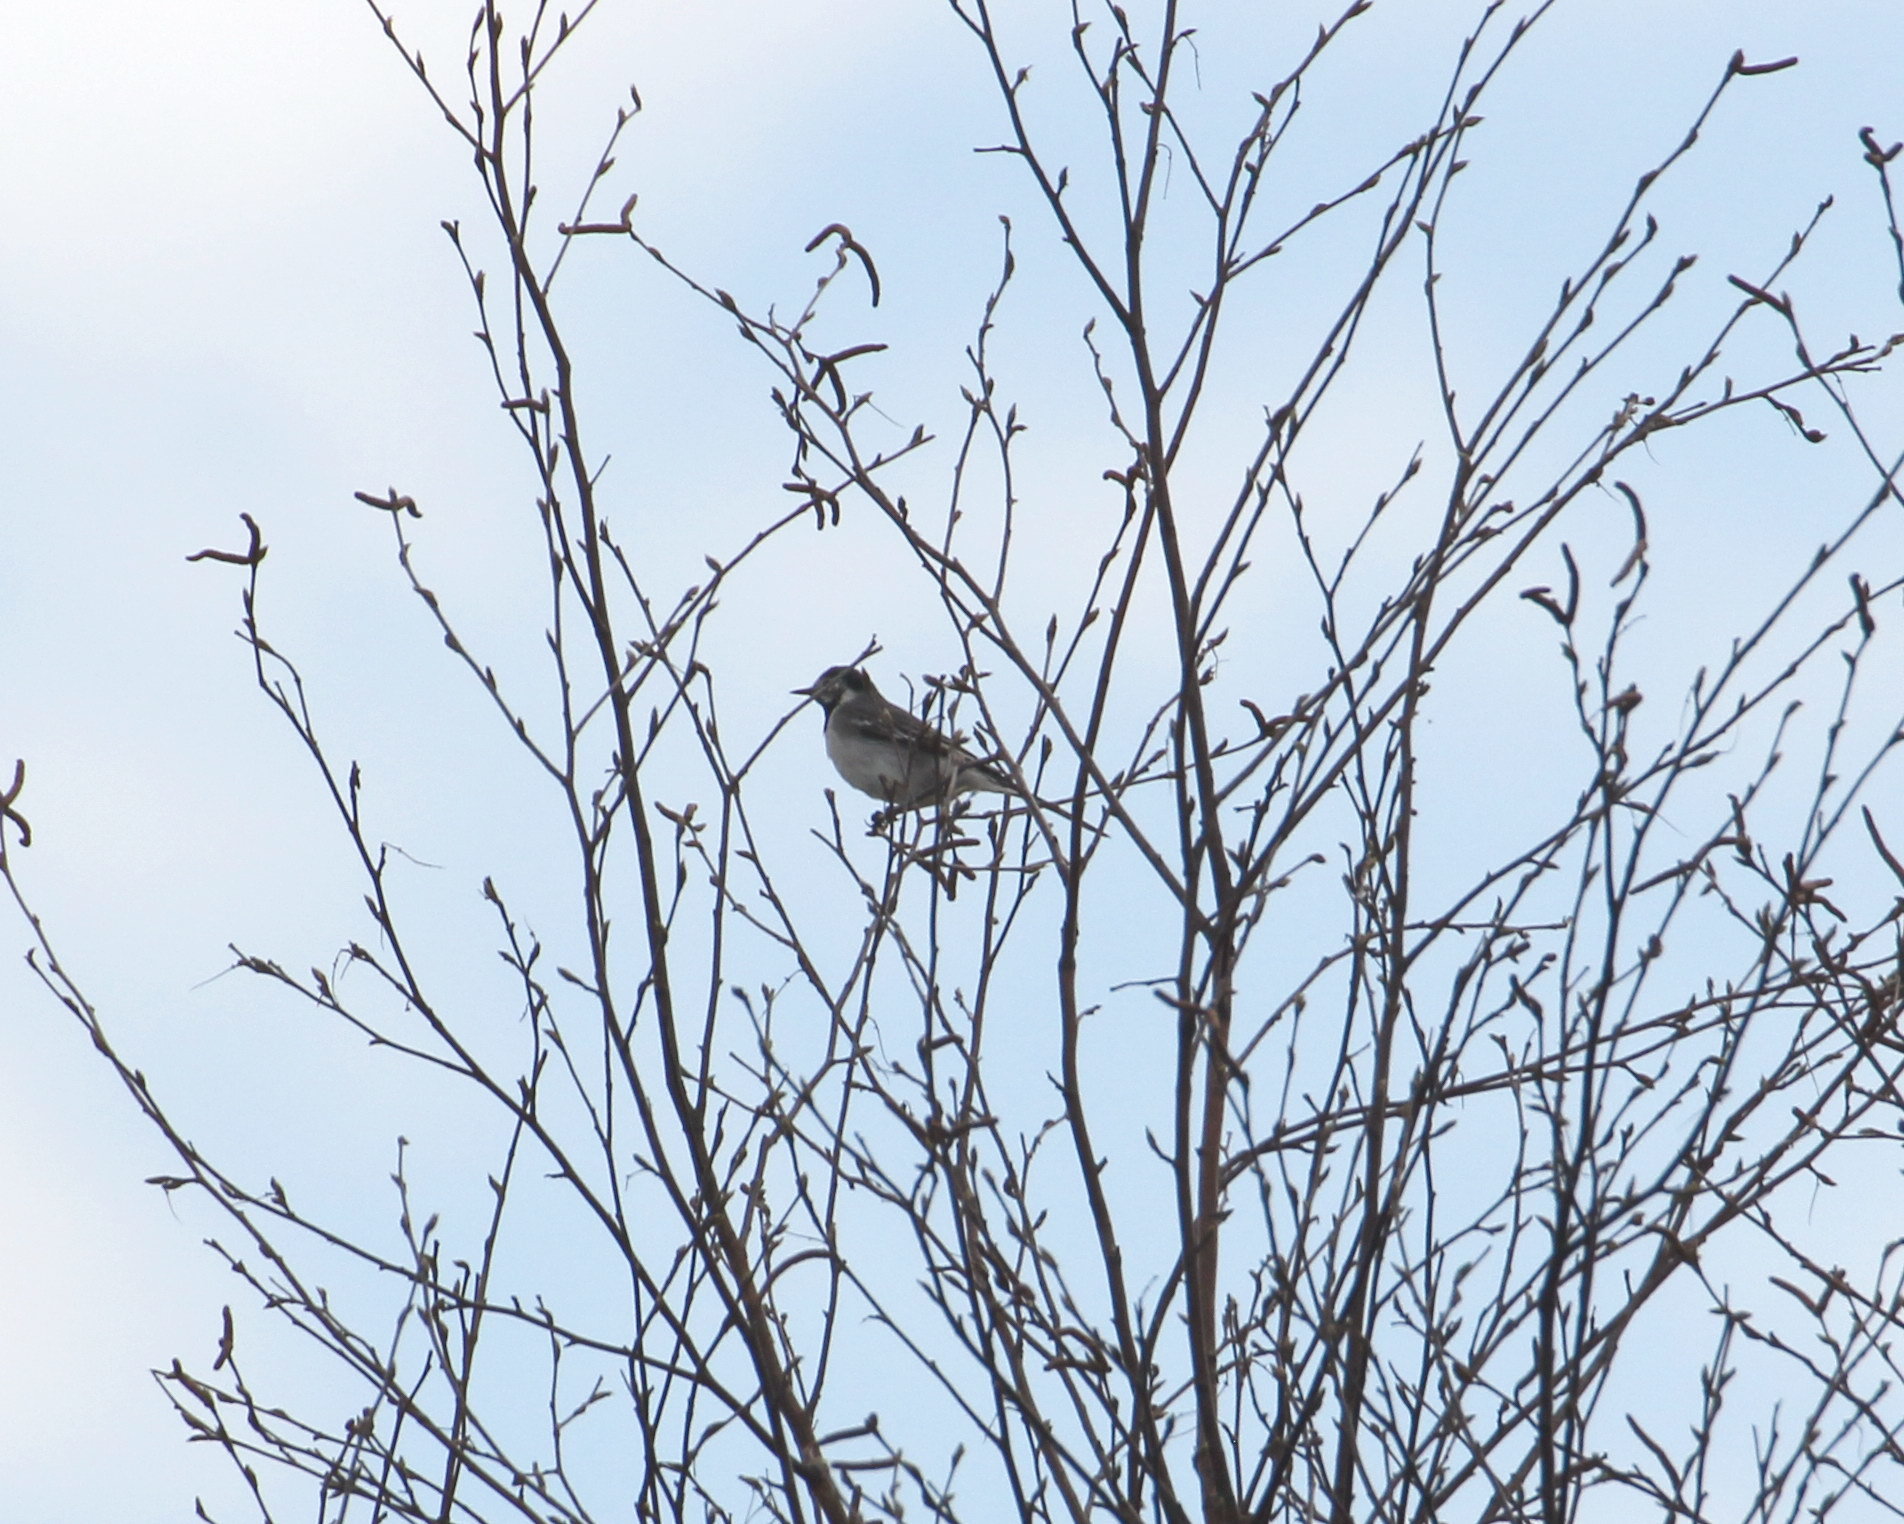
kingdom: Animalia
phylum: Chordata
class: Aves
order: Passeriformes
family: Motacillidae
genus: Motacilla
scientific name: Motacilla alba
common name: White wagtail
